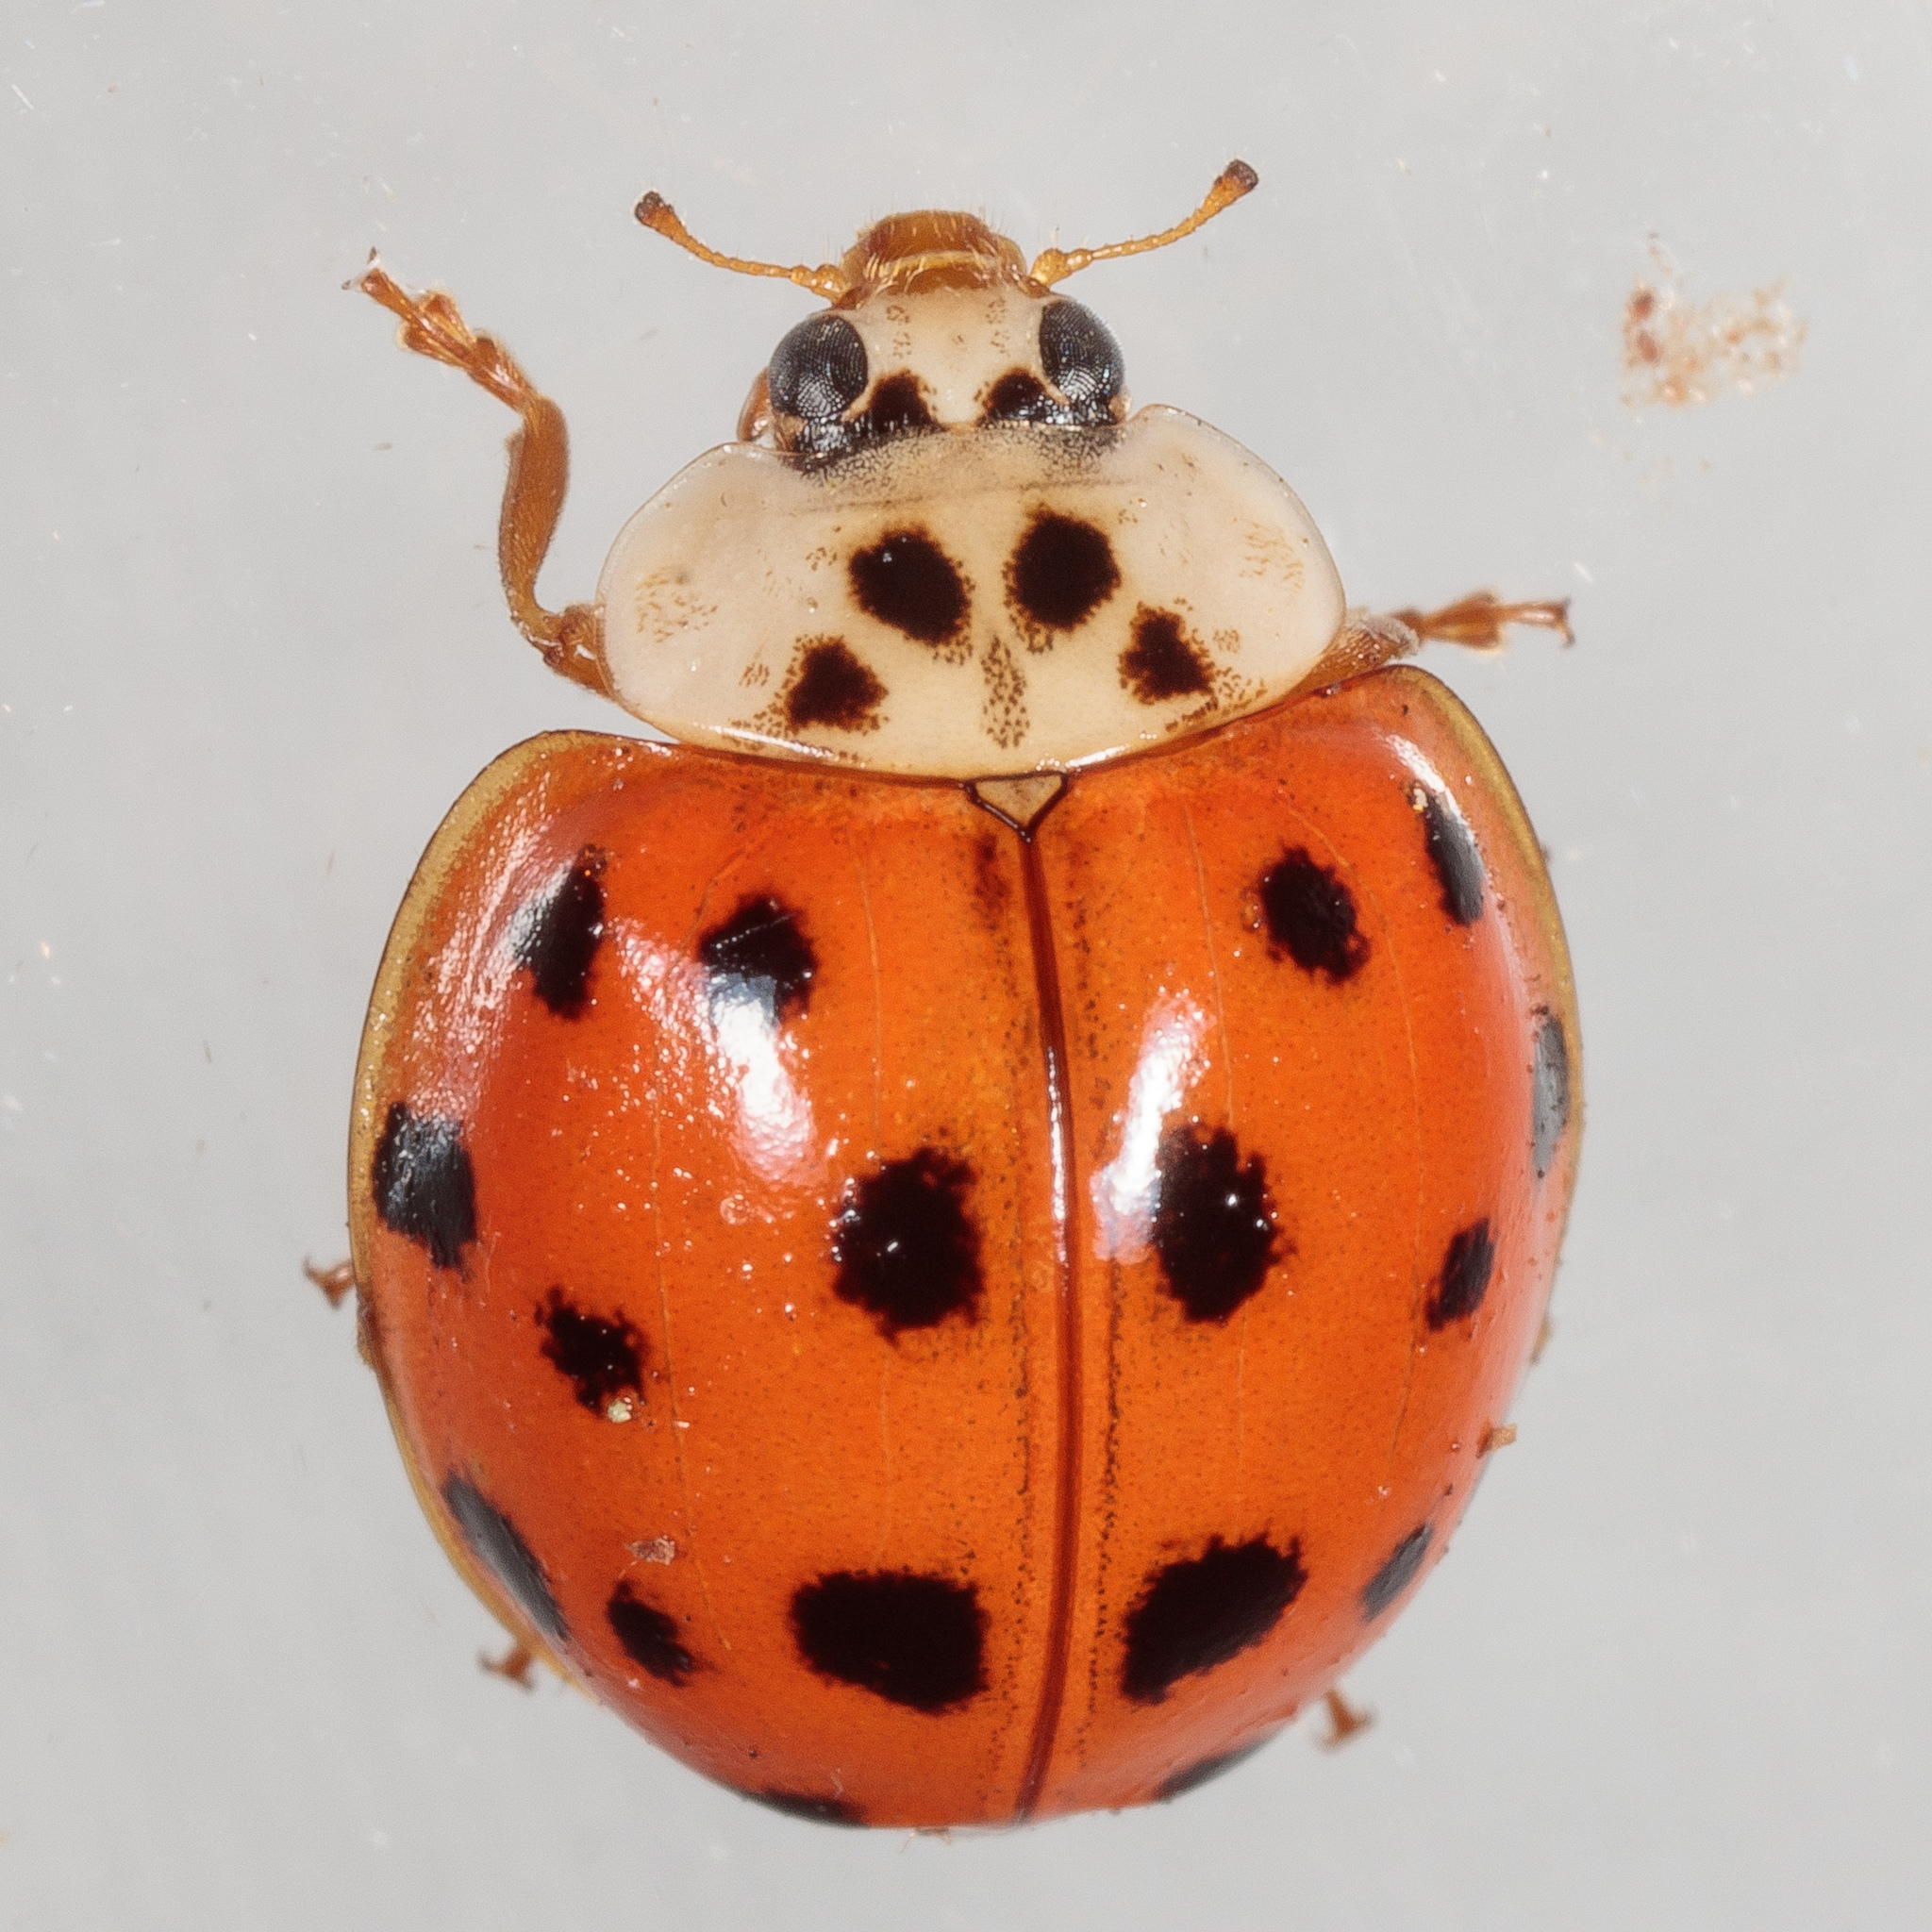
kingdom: Animalia
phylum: Arthropoda
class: Insecta
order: Coleoptera
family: Coccinellidae
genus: Harmonia
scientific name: Harmonia axyridis
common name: Harlequin ladybird
